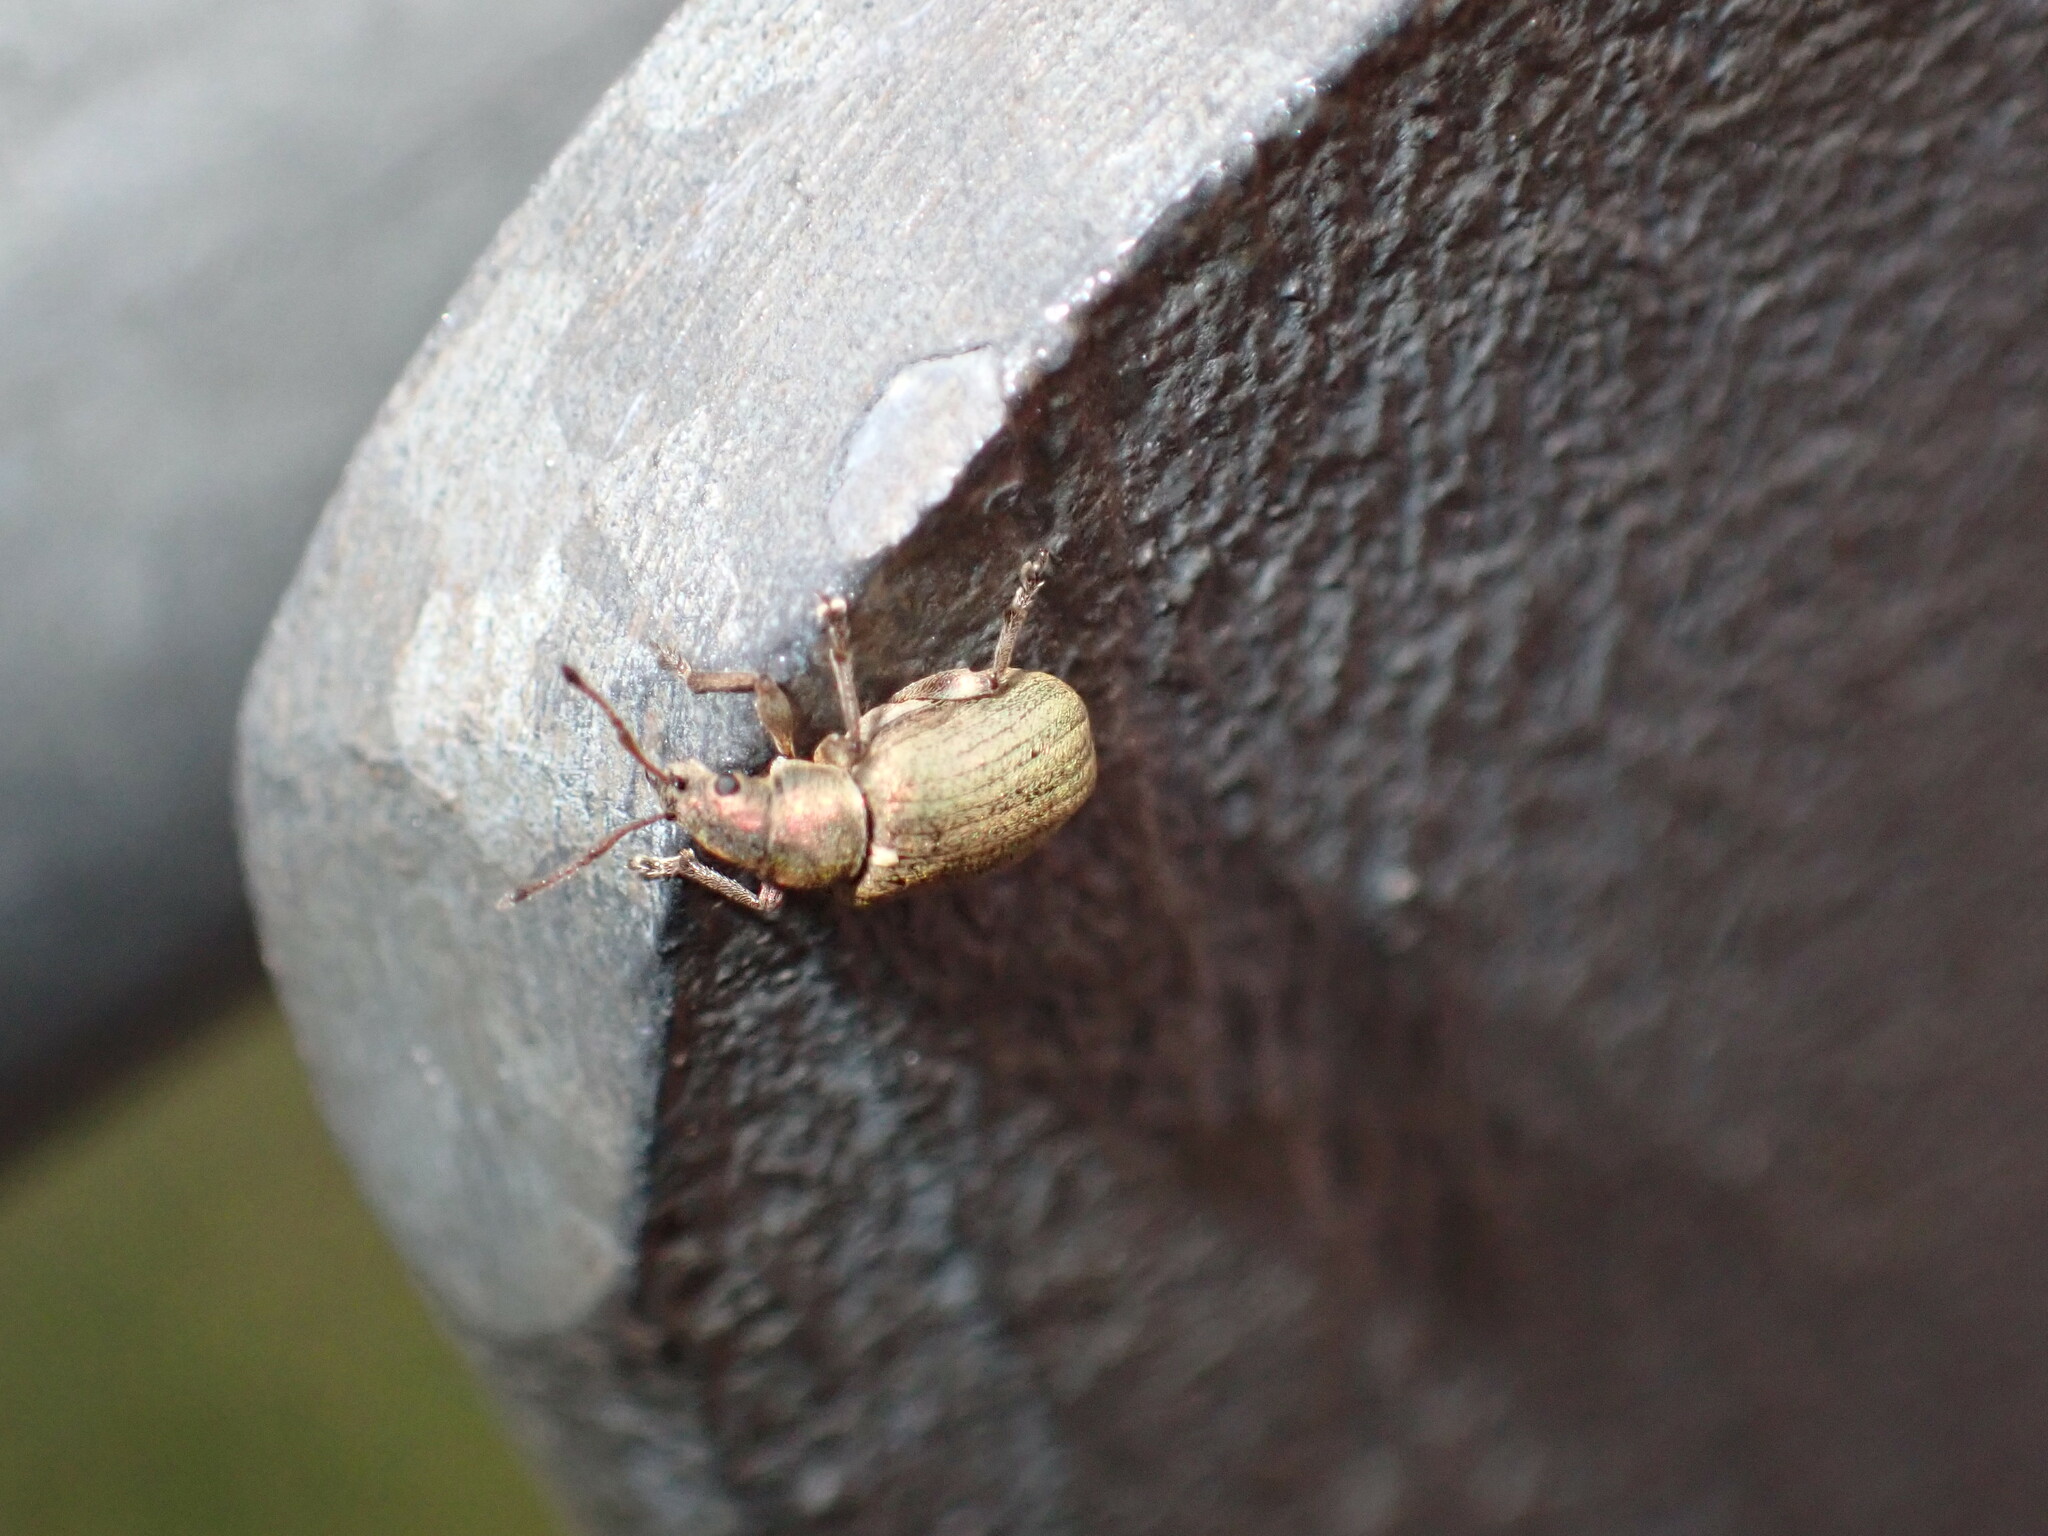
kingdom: Animalia
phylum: Arthropoda
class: Insecta
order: Coleoptera
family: Curculionidae
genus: Phyllobius
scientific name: Phyllobius pyri
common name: Common leaf weevil
